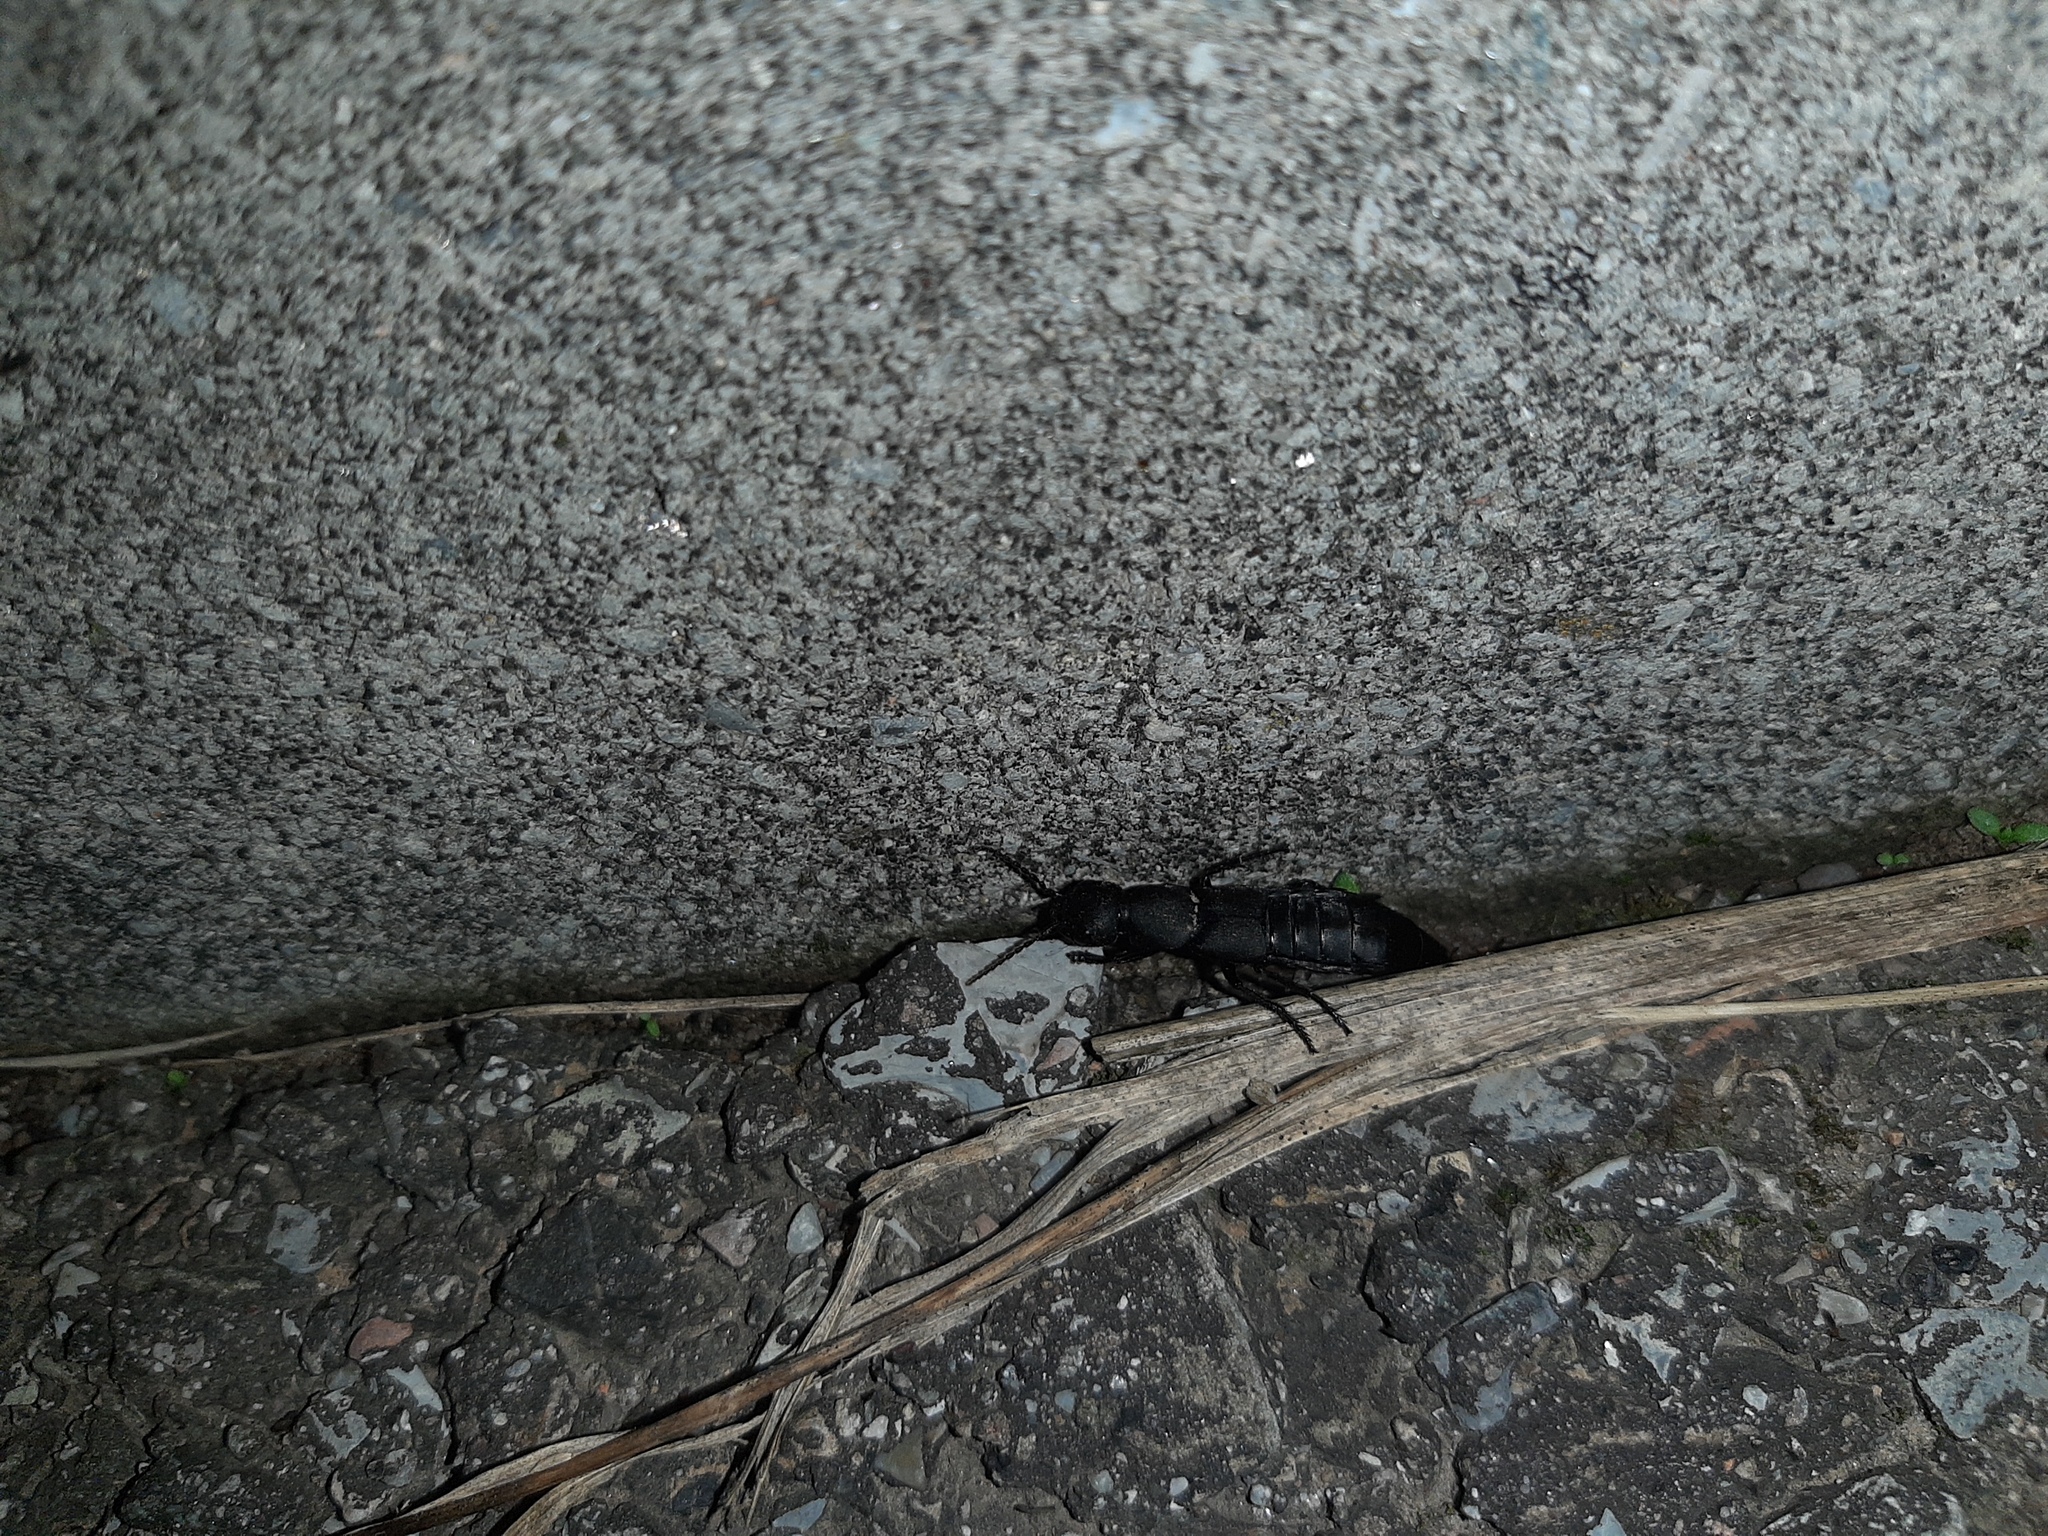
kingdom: Animalia
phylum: Arthropoda
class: Insecta
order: Coleoptera
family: Staphylinidae
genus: Ocypus
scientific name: Ocypus olens
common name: Devil's coach-horse
